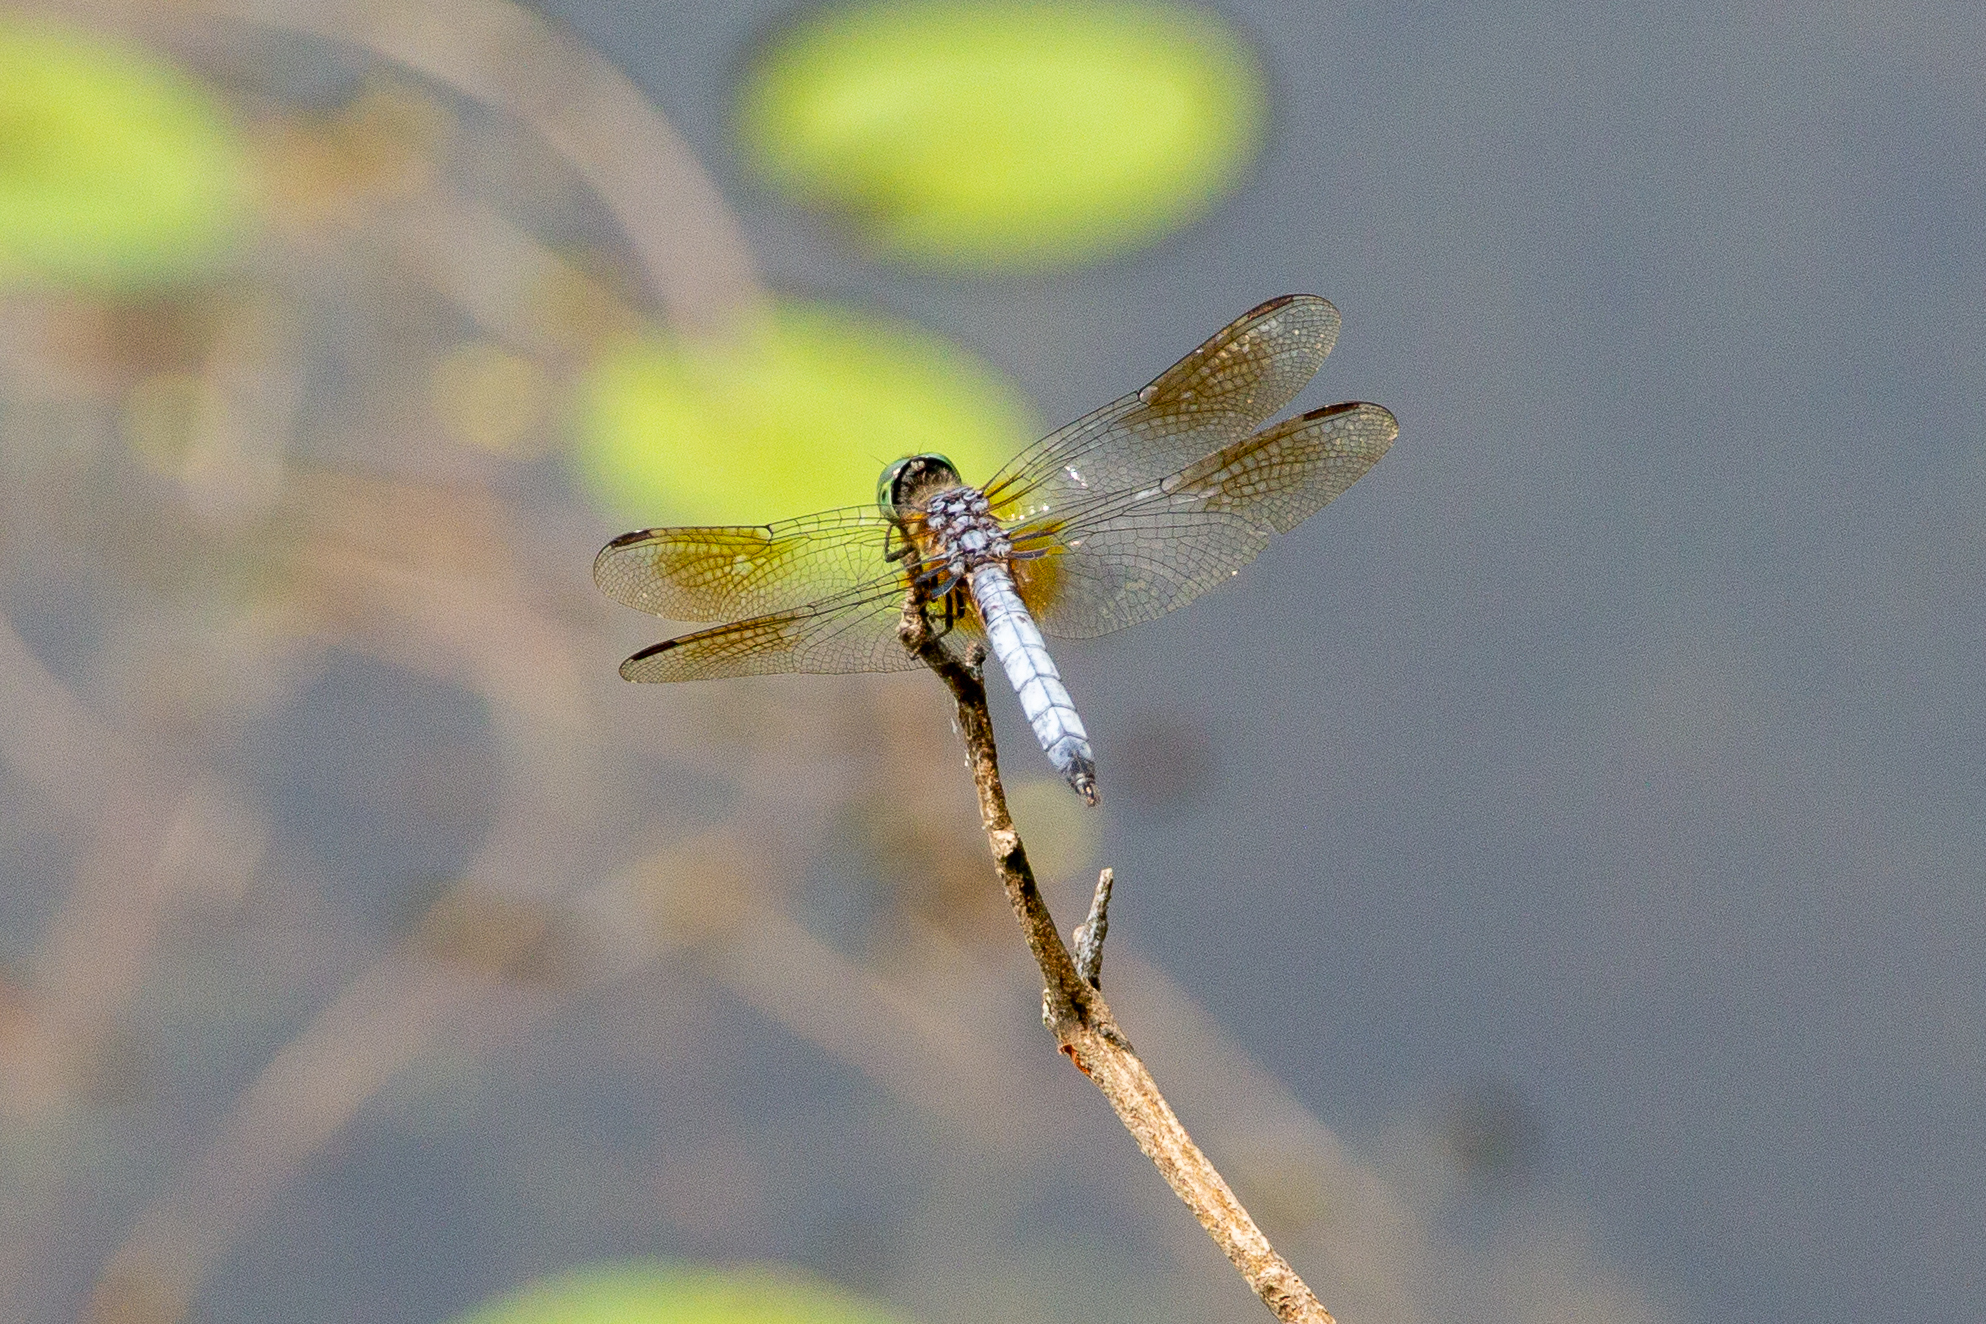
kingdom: Animalia
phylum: Arthropoda
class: Insecta
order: Odonata
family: Libellulidae
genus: Pachydiplax
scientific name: Pachydiplax longipennis
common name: Blue dasher
